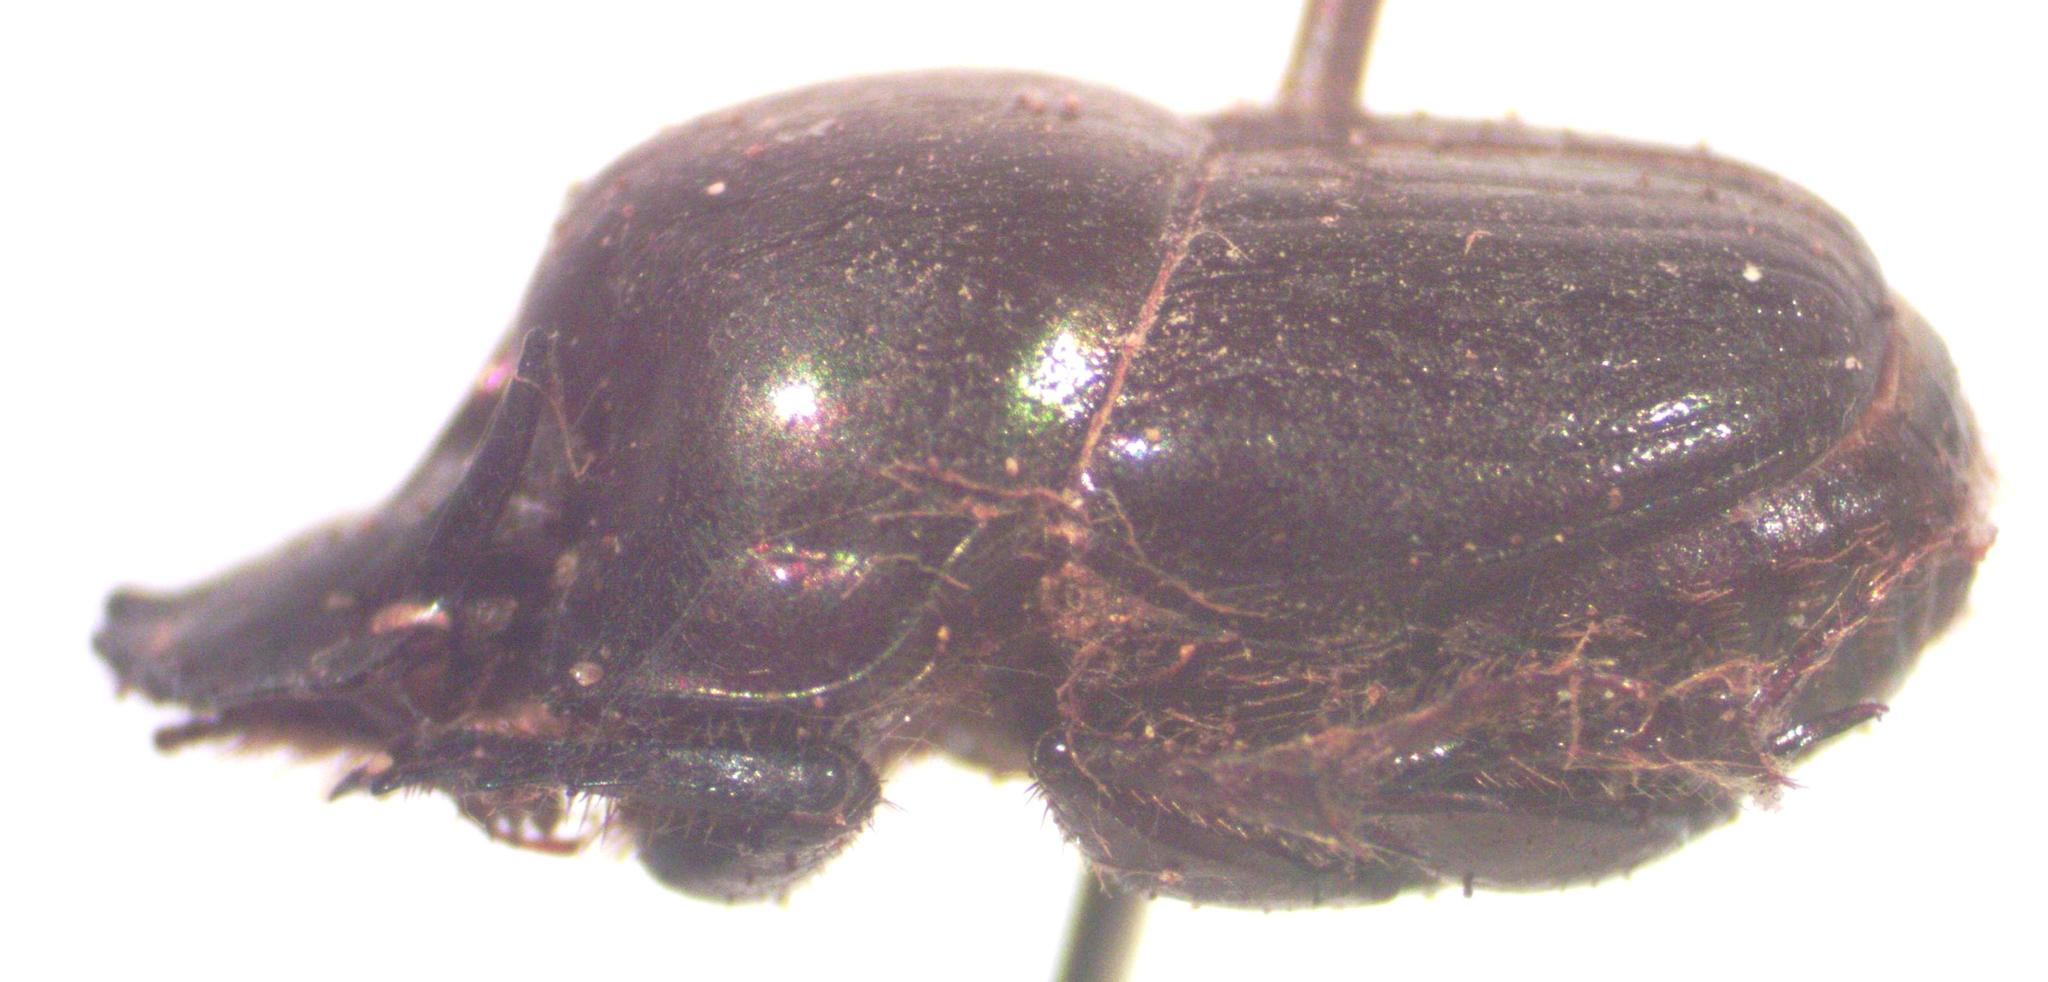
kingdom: Animalia
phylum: Arthropoda
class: Insecta
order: Coleoptera
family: Scarabaeidae
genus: Onthophagus
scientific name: Onthophagus batesi
